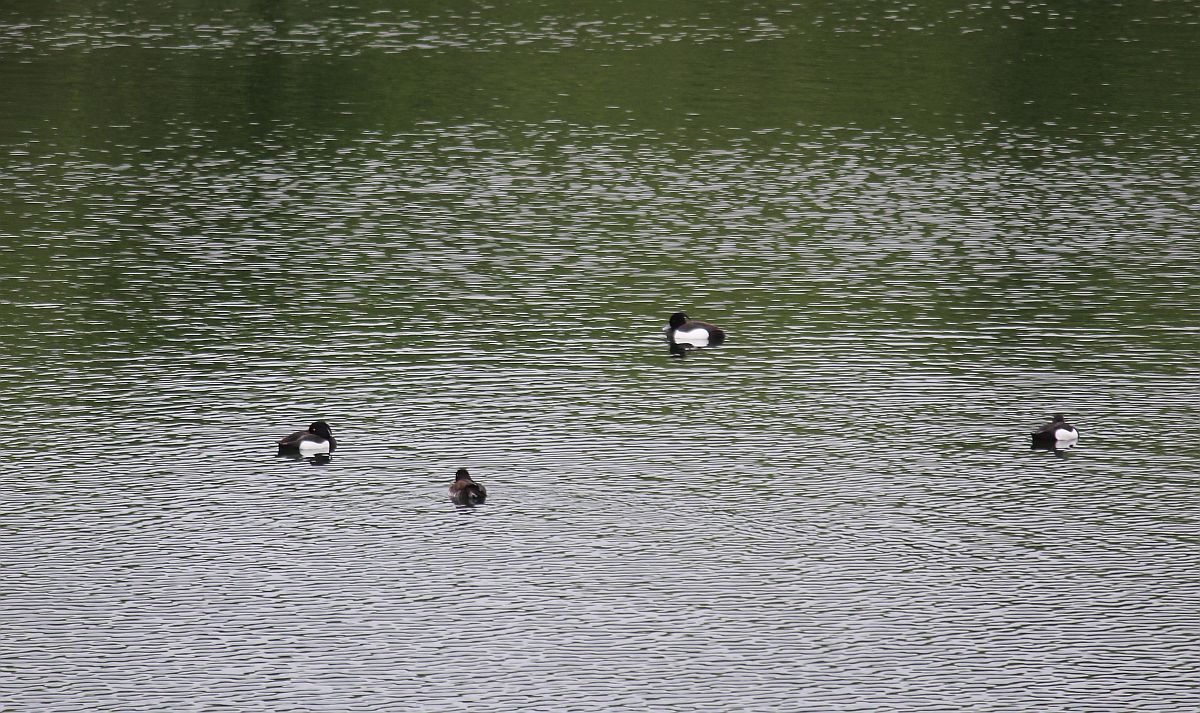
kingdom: Animalia
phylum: Chordata
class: Aves
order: Anseriformes
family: Anatidae
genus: Aythya
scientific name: Aythya fuligula
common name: Tufted duck
